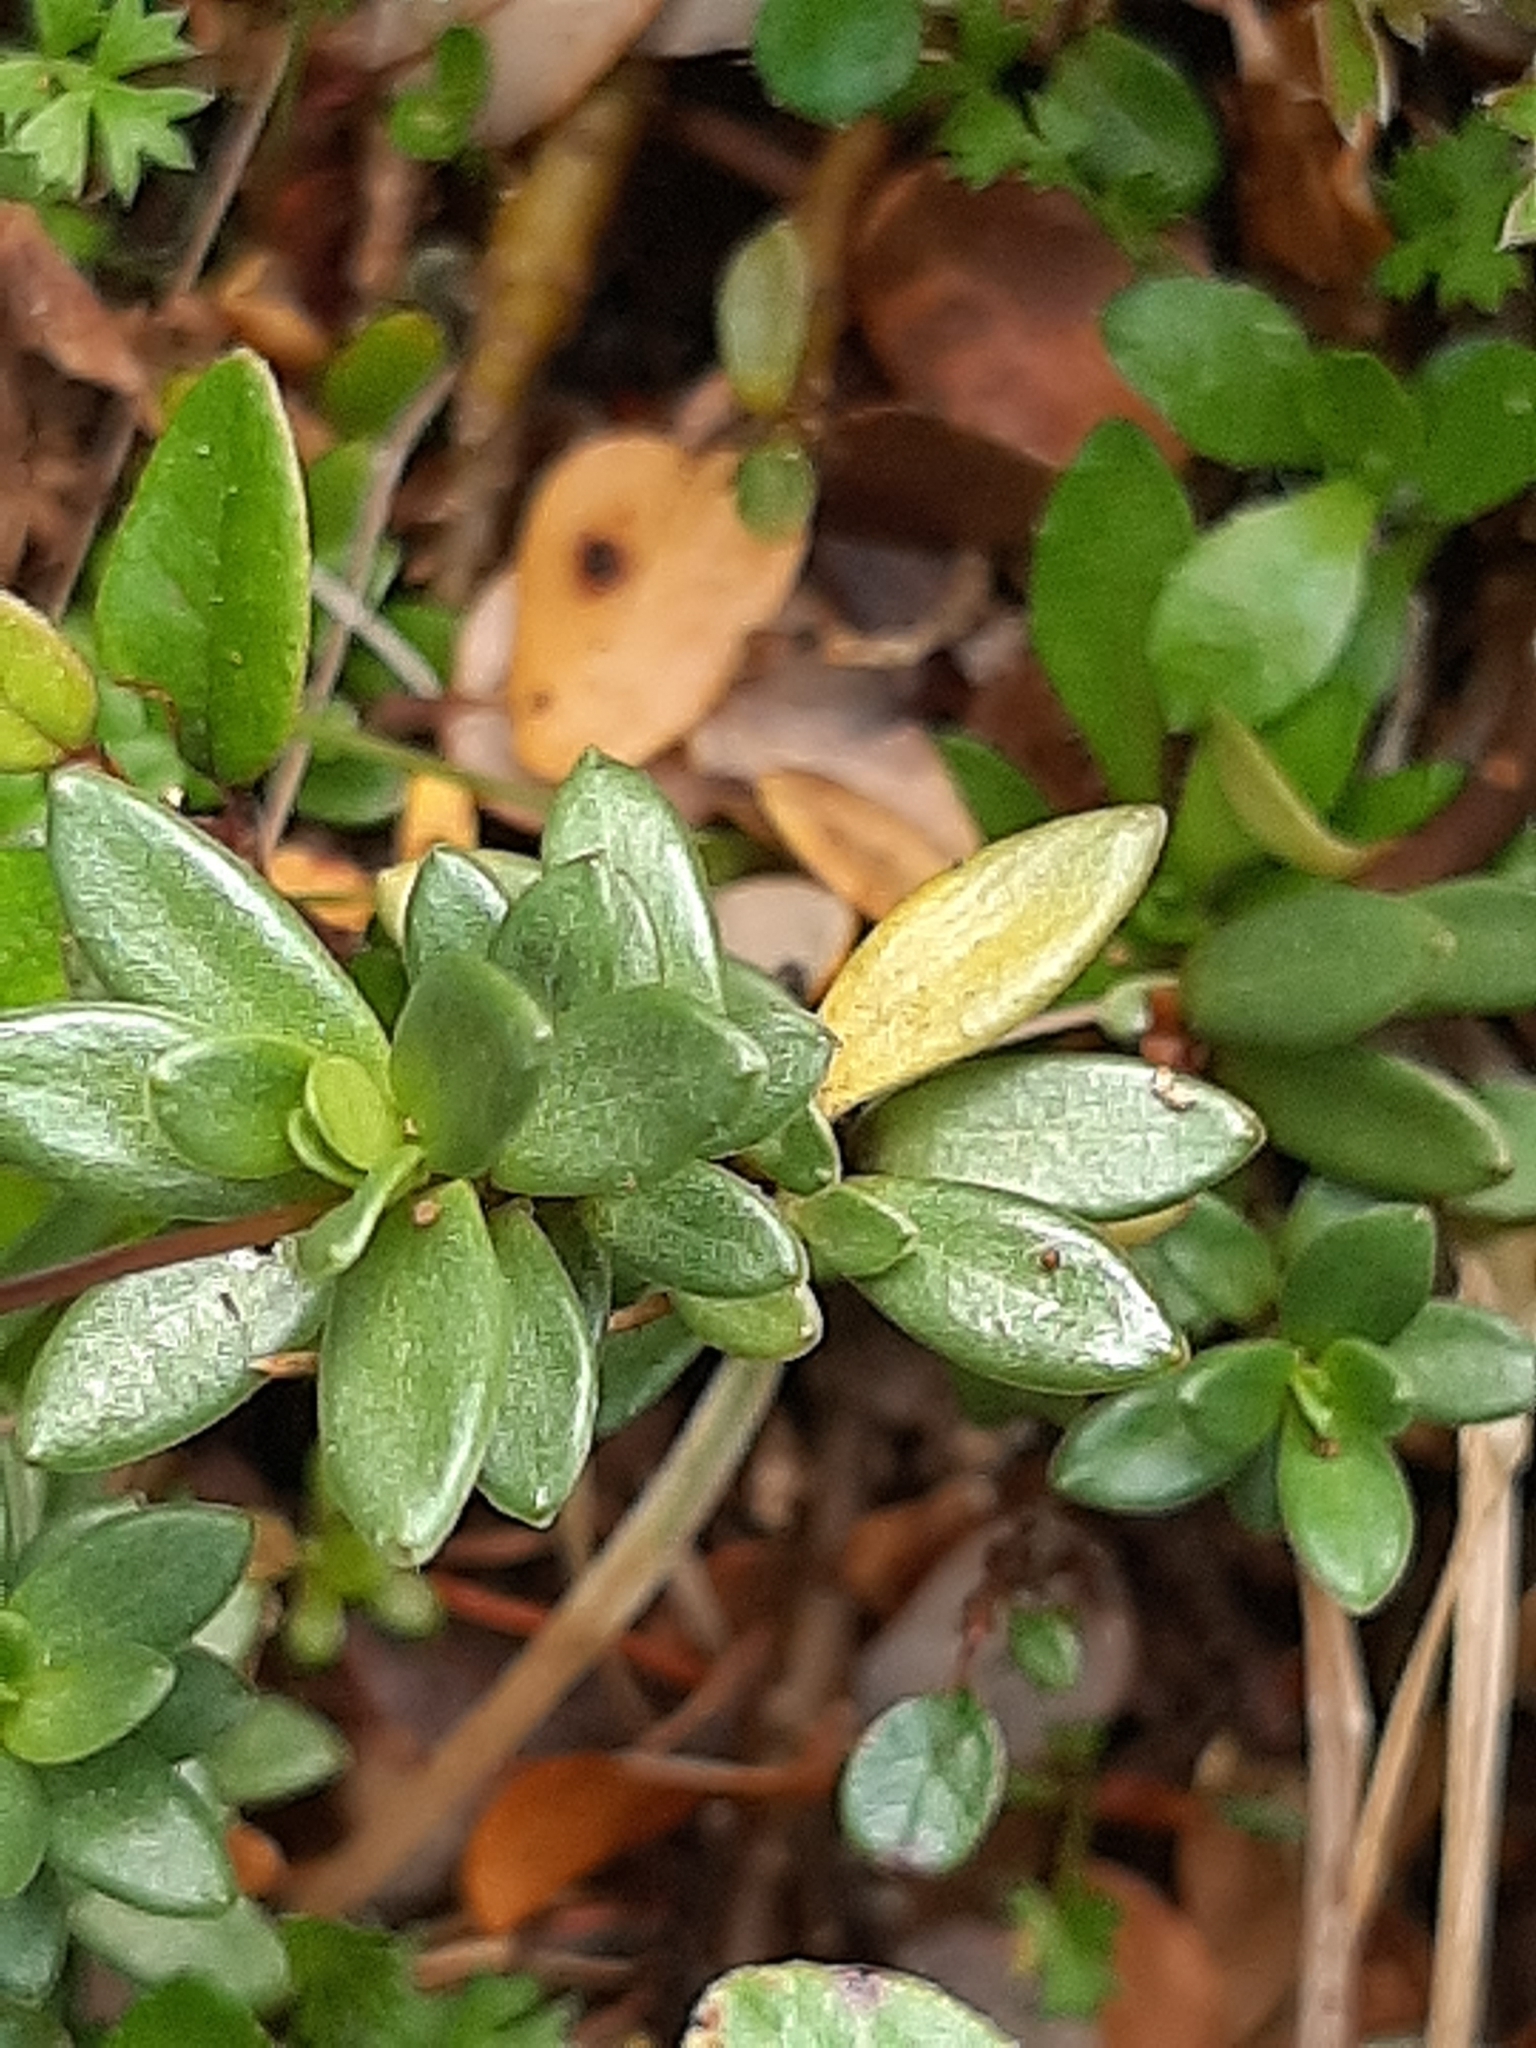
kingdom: Plantae
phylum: Tracheophyta
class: Magnoliopsida
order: Asterales
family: Stylidiaceae
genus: Forstera
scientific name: Forstera tenella
